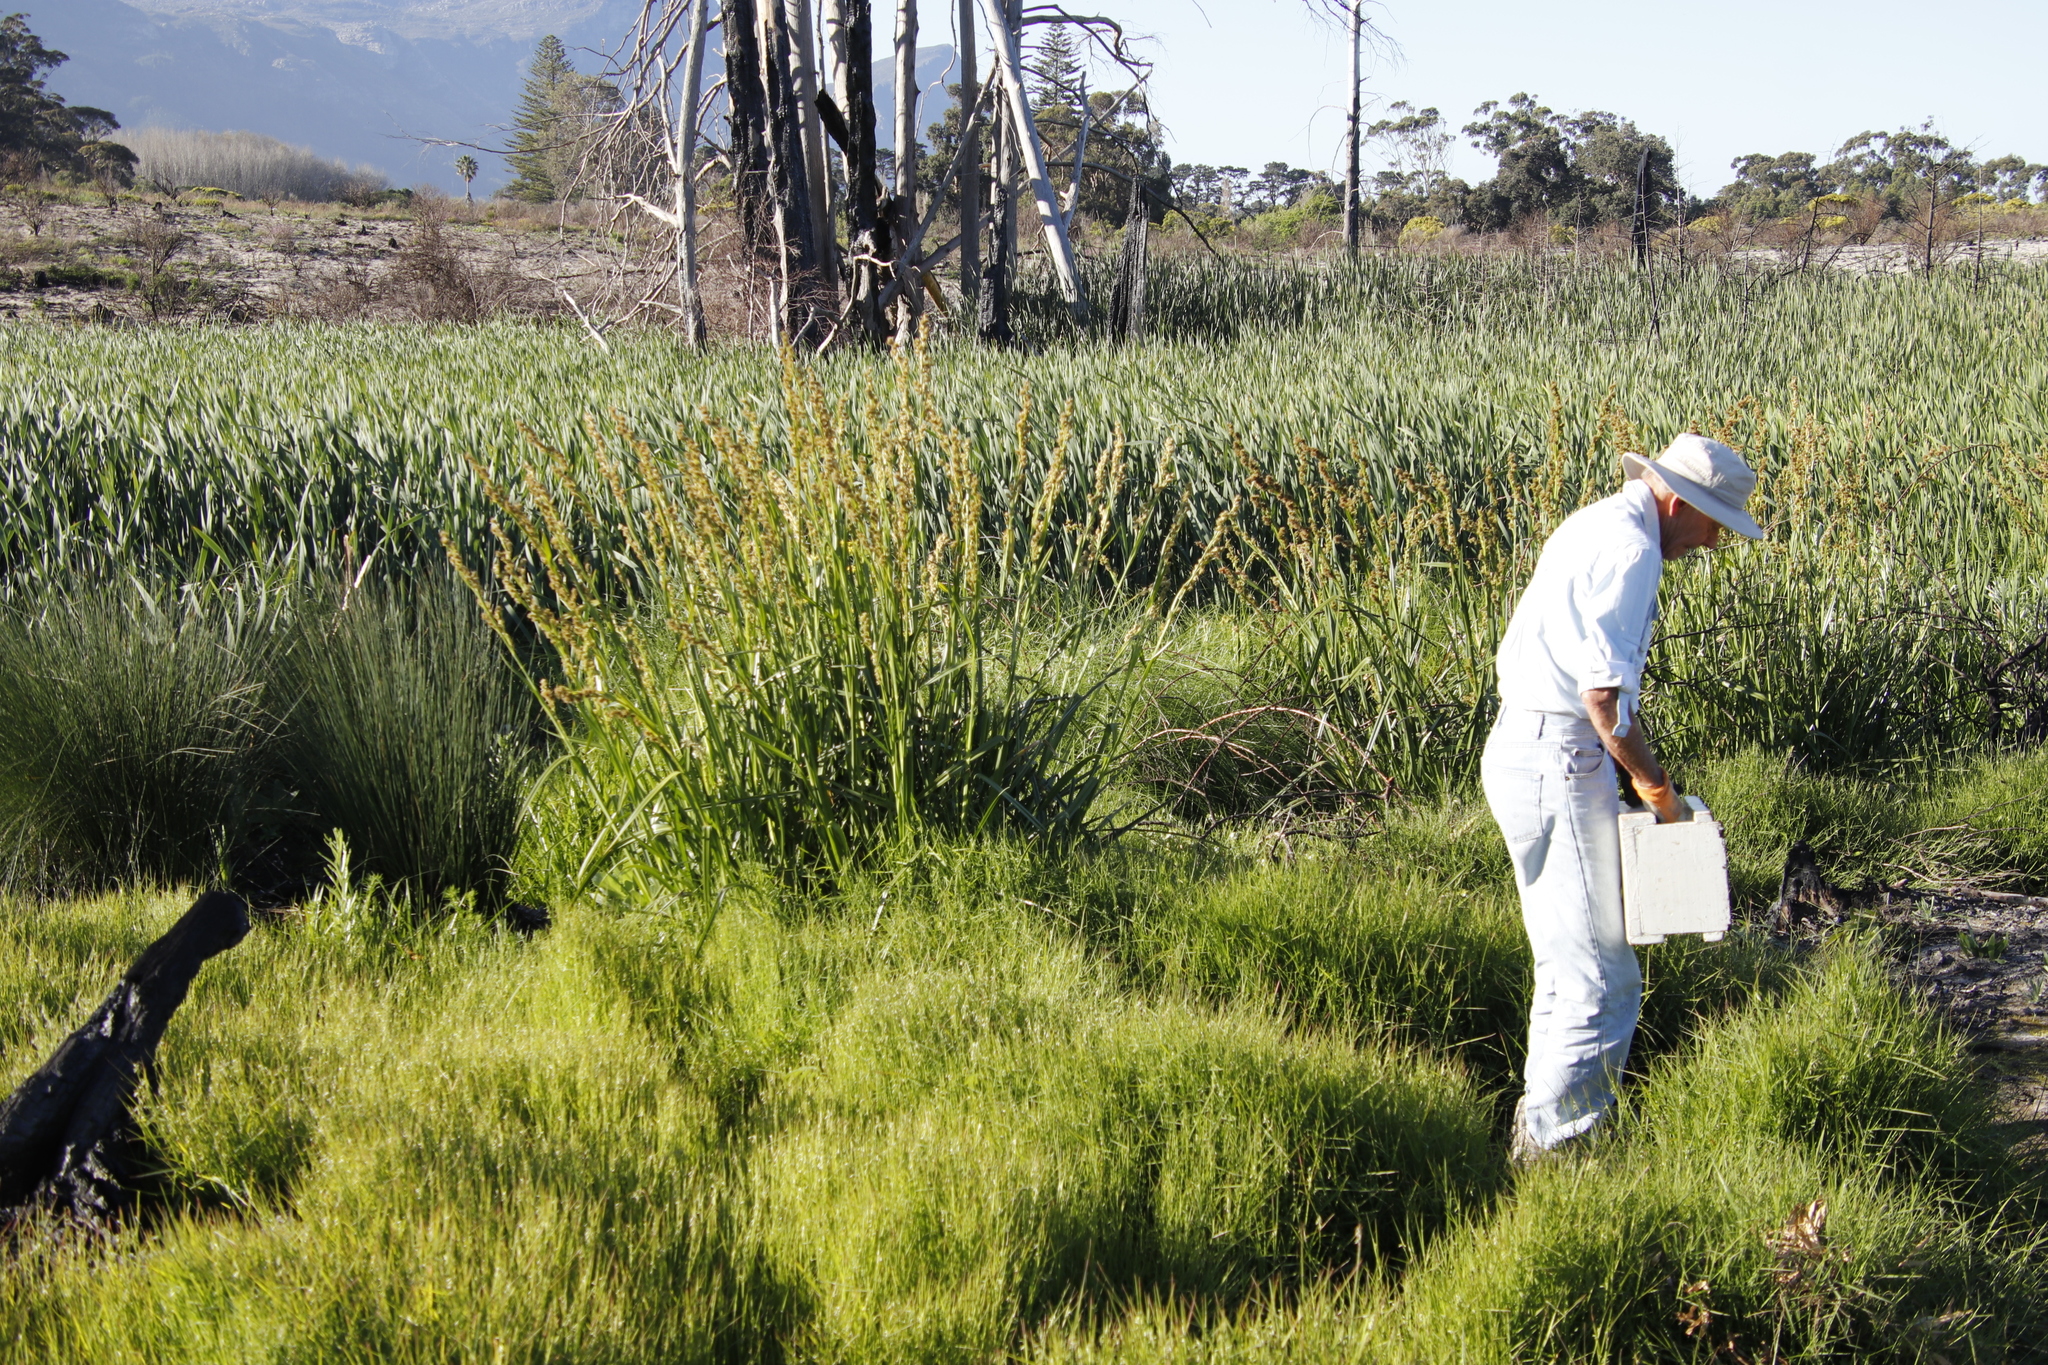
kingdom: Plantae
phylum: Tracheophyta
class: Liliopsida
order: Poales
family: Cyperaceae
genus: Carpha
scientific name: Carpha glomerata
